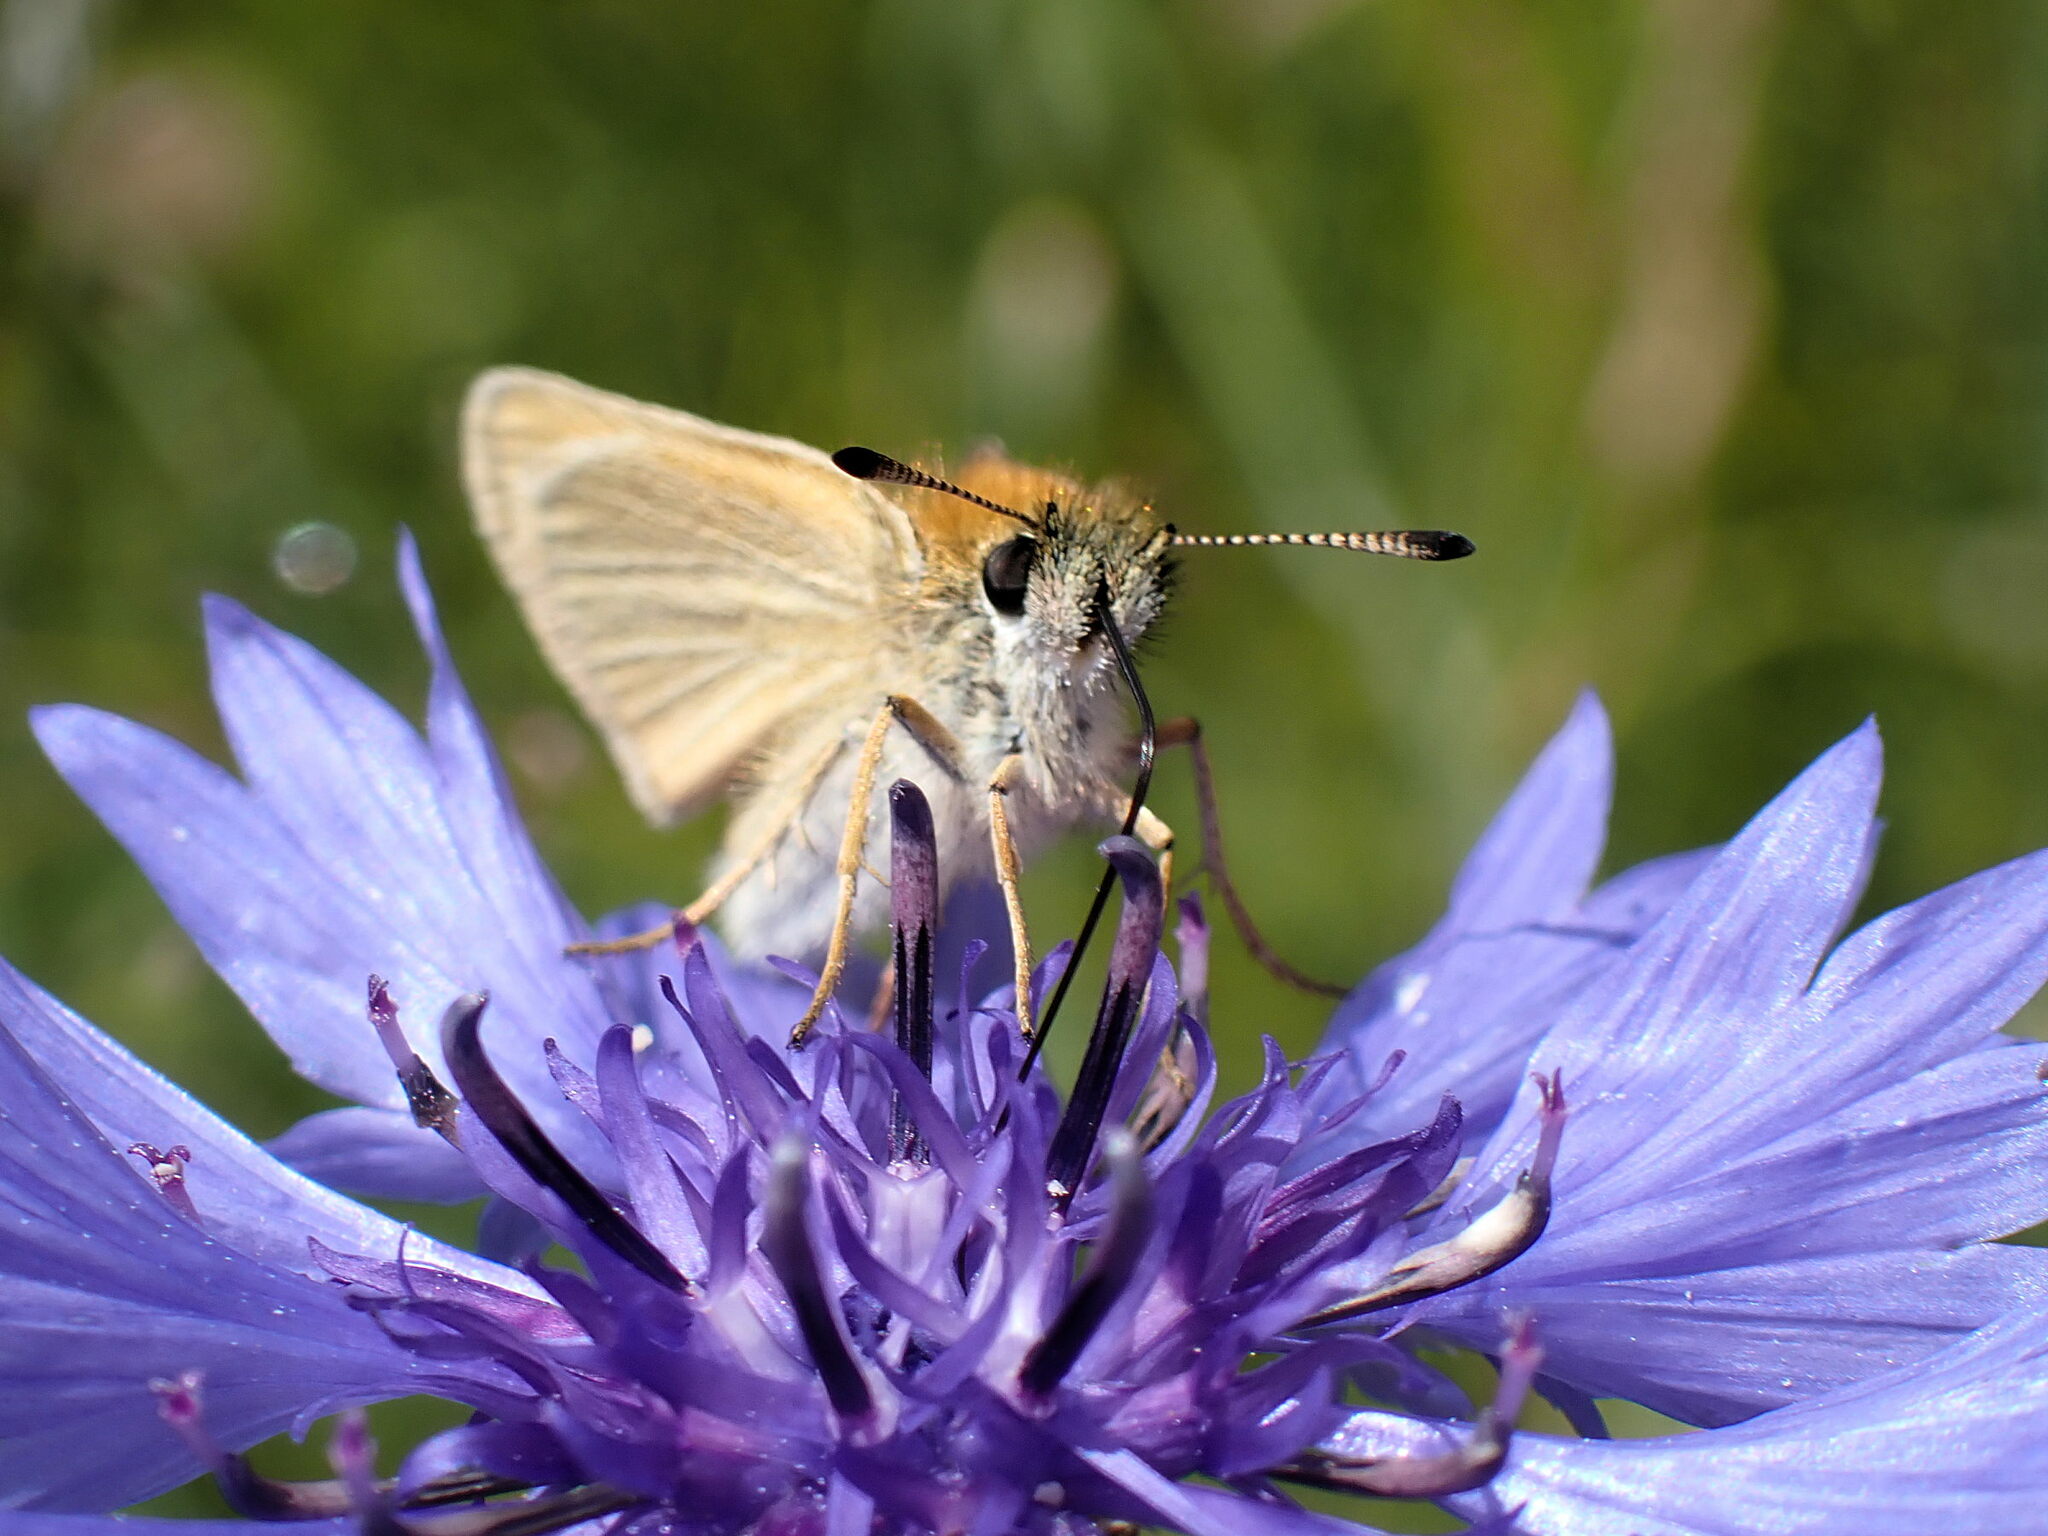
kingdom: Animalia
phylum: Arthropoda
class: Insecta
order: Lepidoptera
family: Hesperiidae
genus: Thymelicus
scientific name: Thymelicus lineola
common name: Essex skipper
